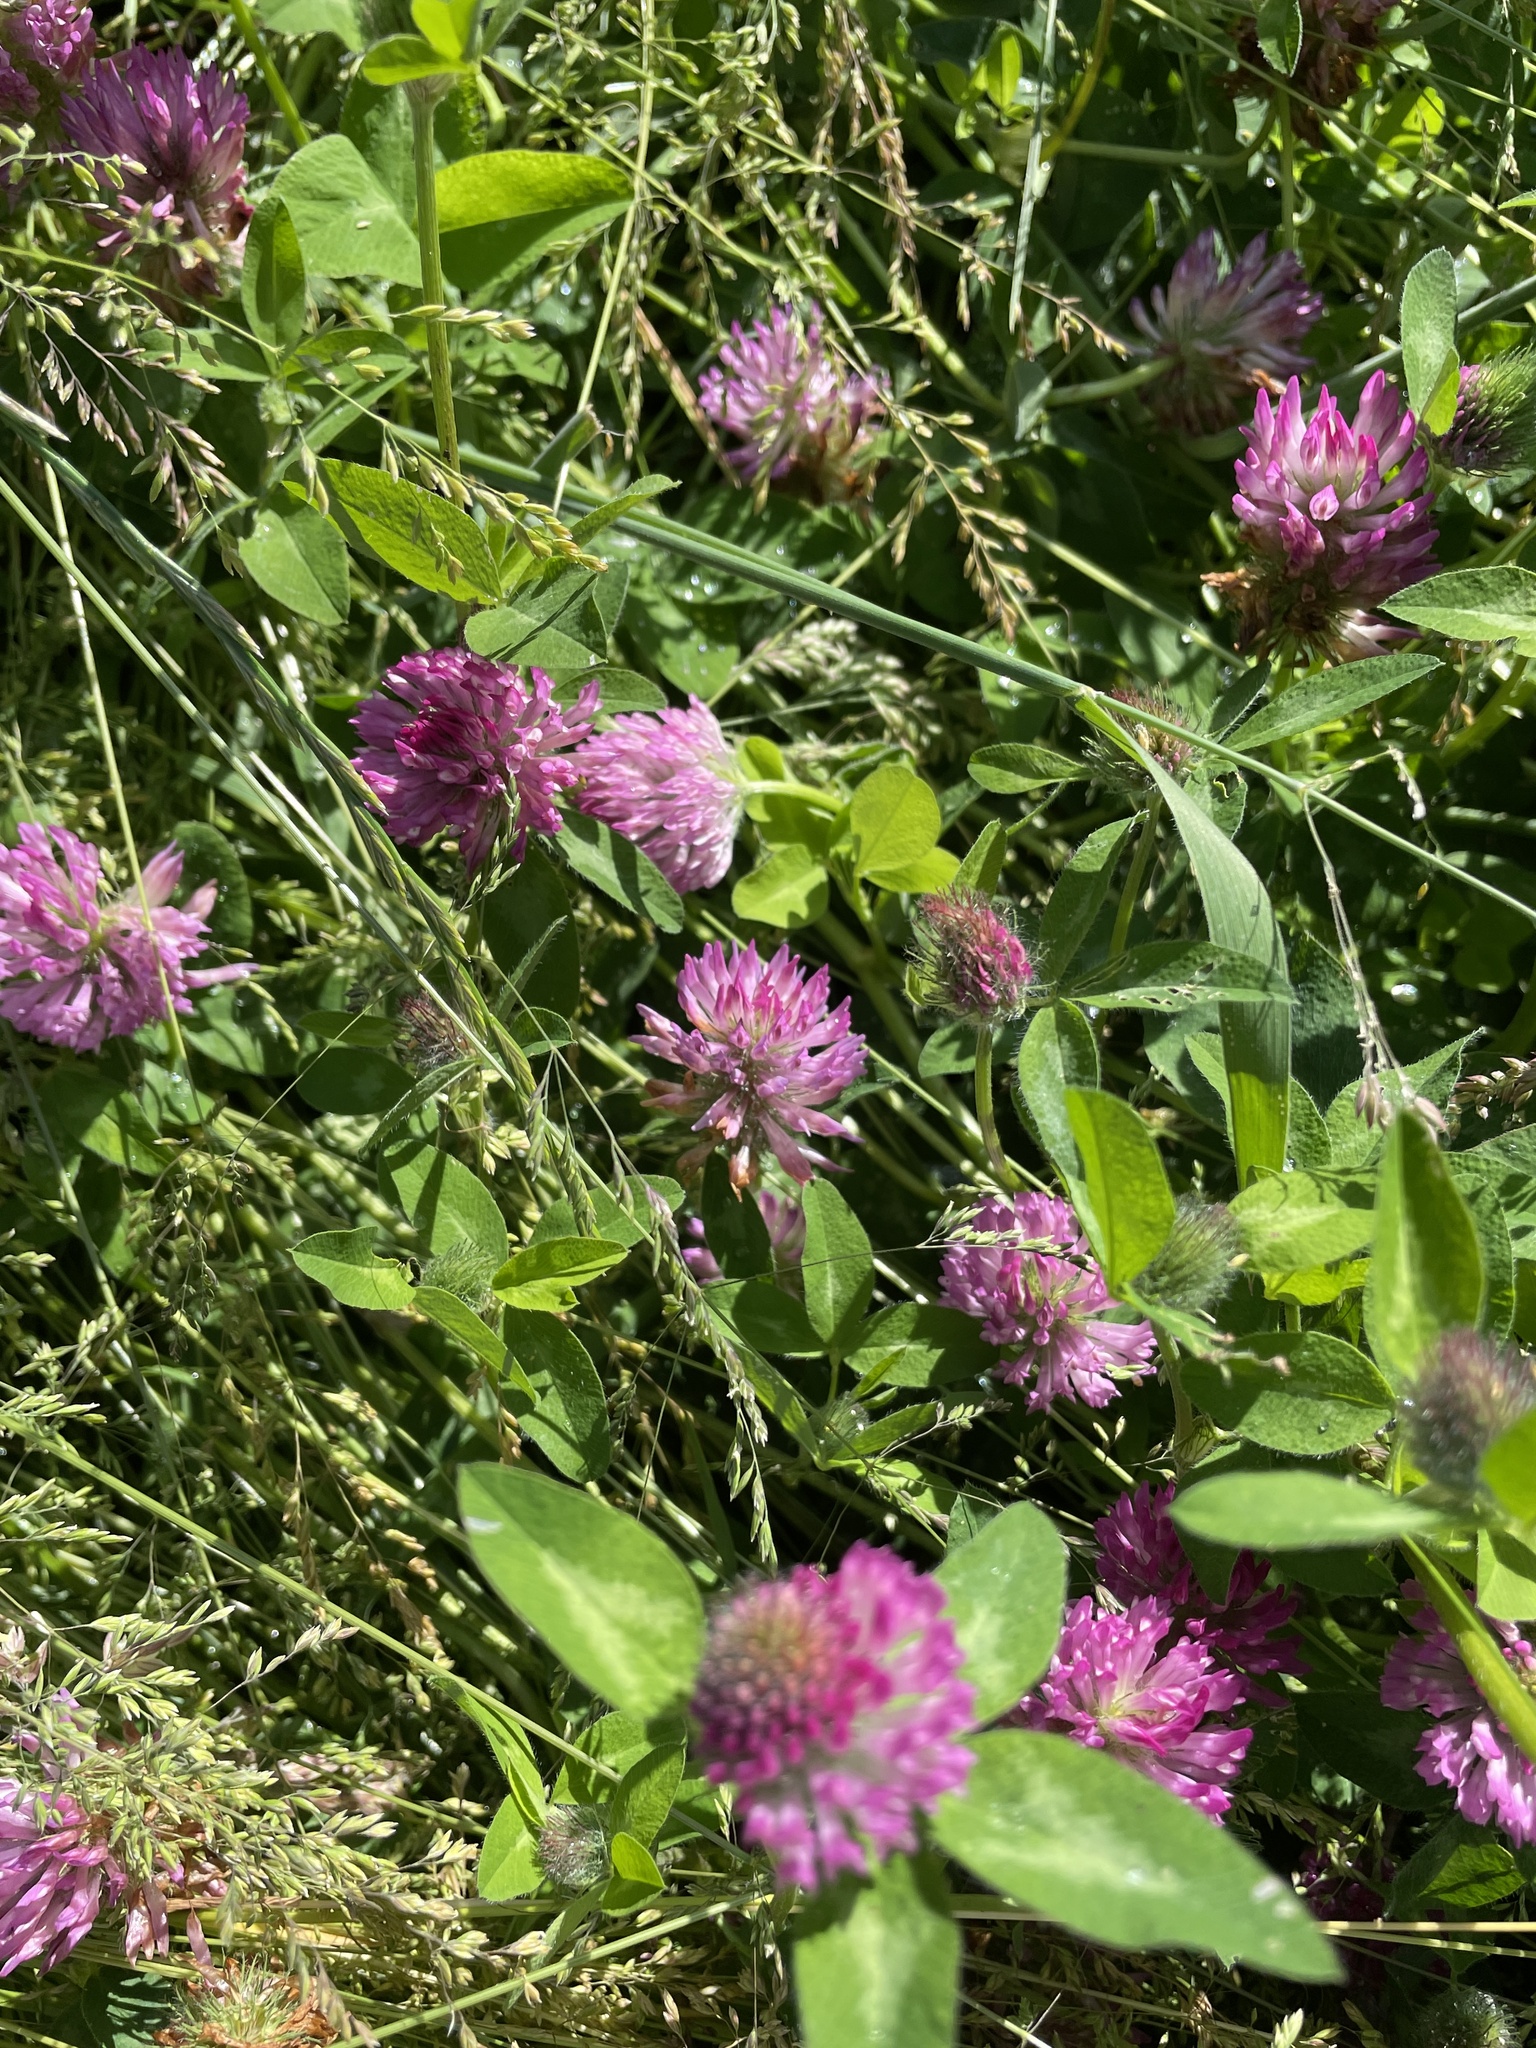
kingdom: Plantae
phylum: Tracheophyta
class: Magnoliopsida
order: Fabales
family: Fabaceae
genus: Trifolium
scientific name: Trifolium pratense
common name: Red clover
